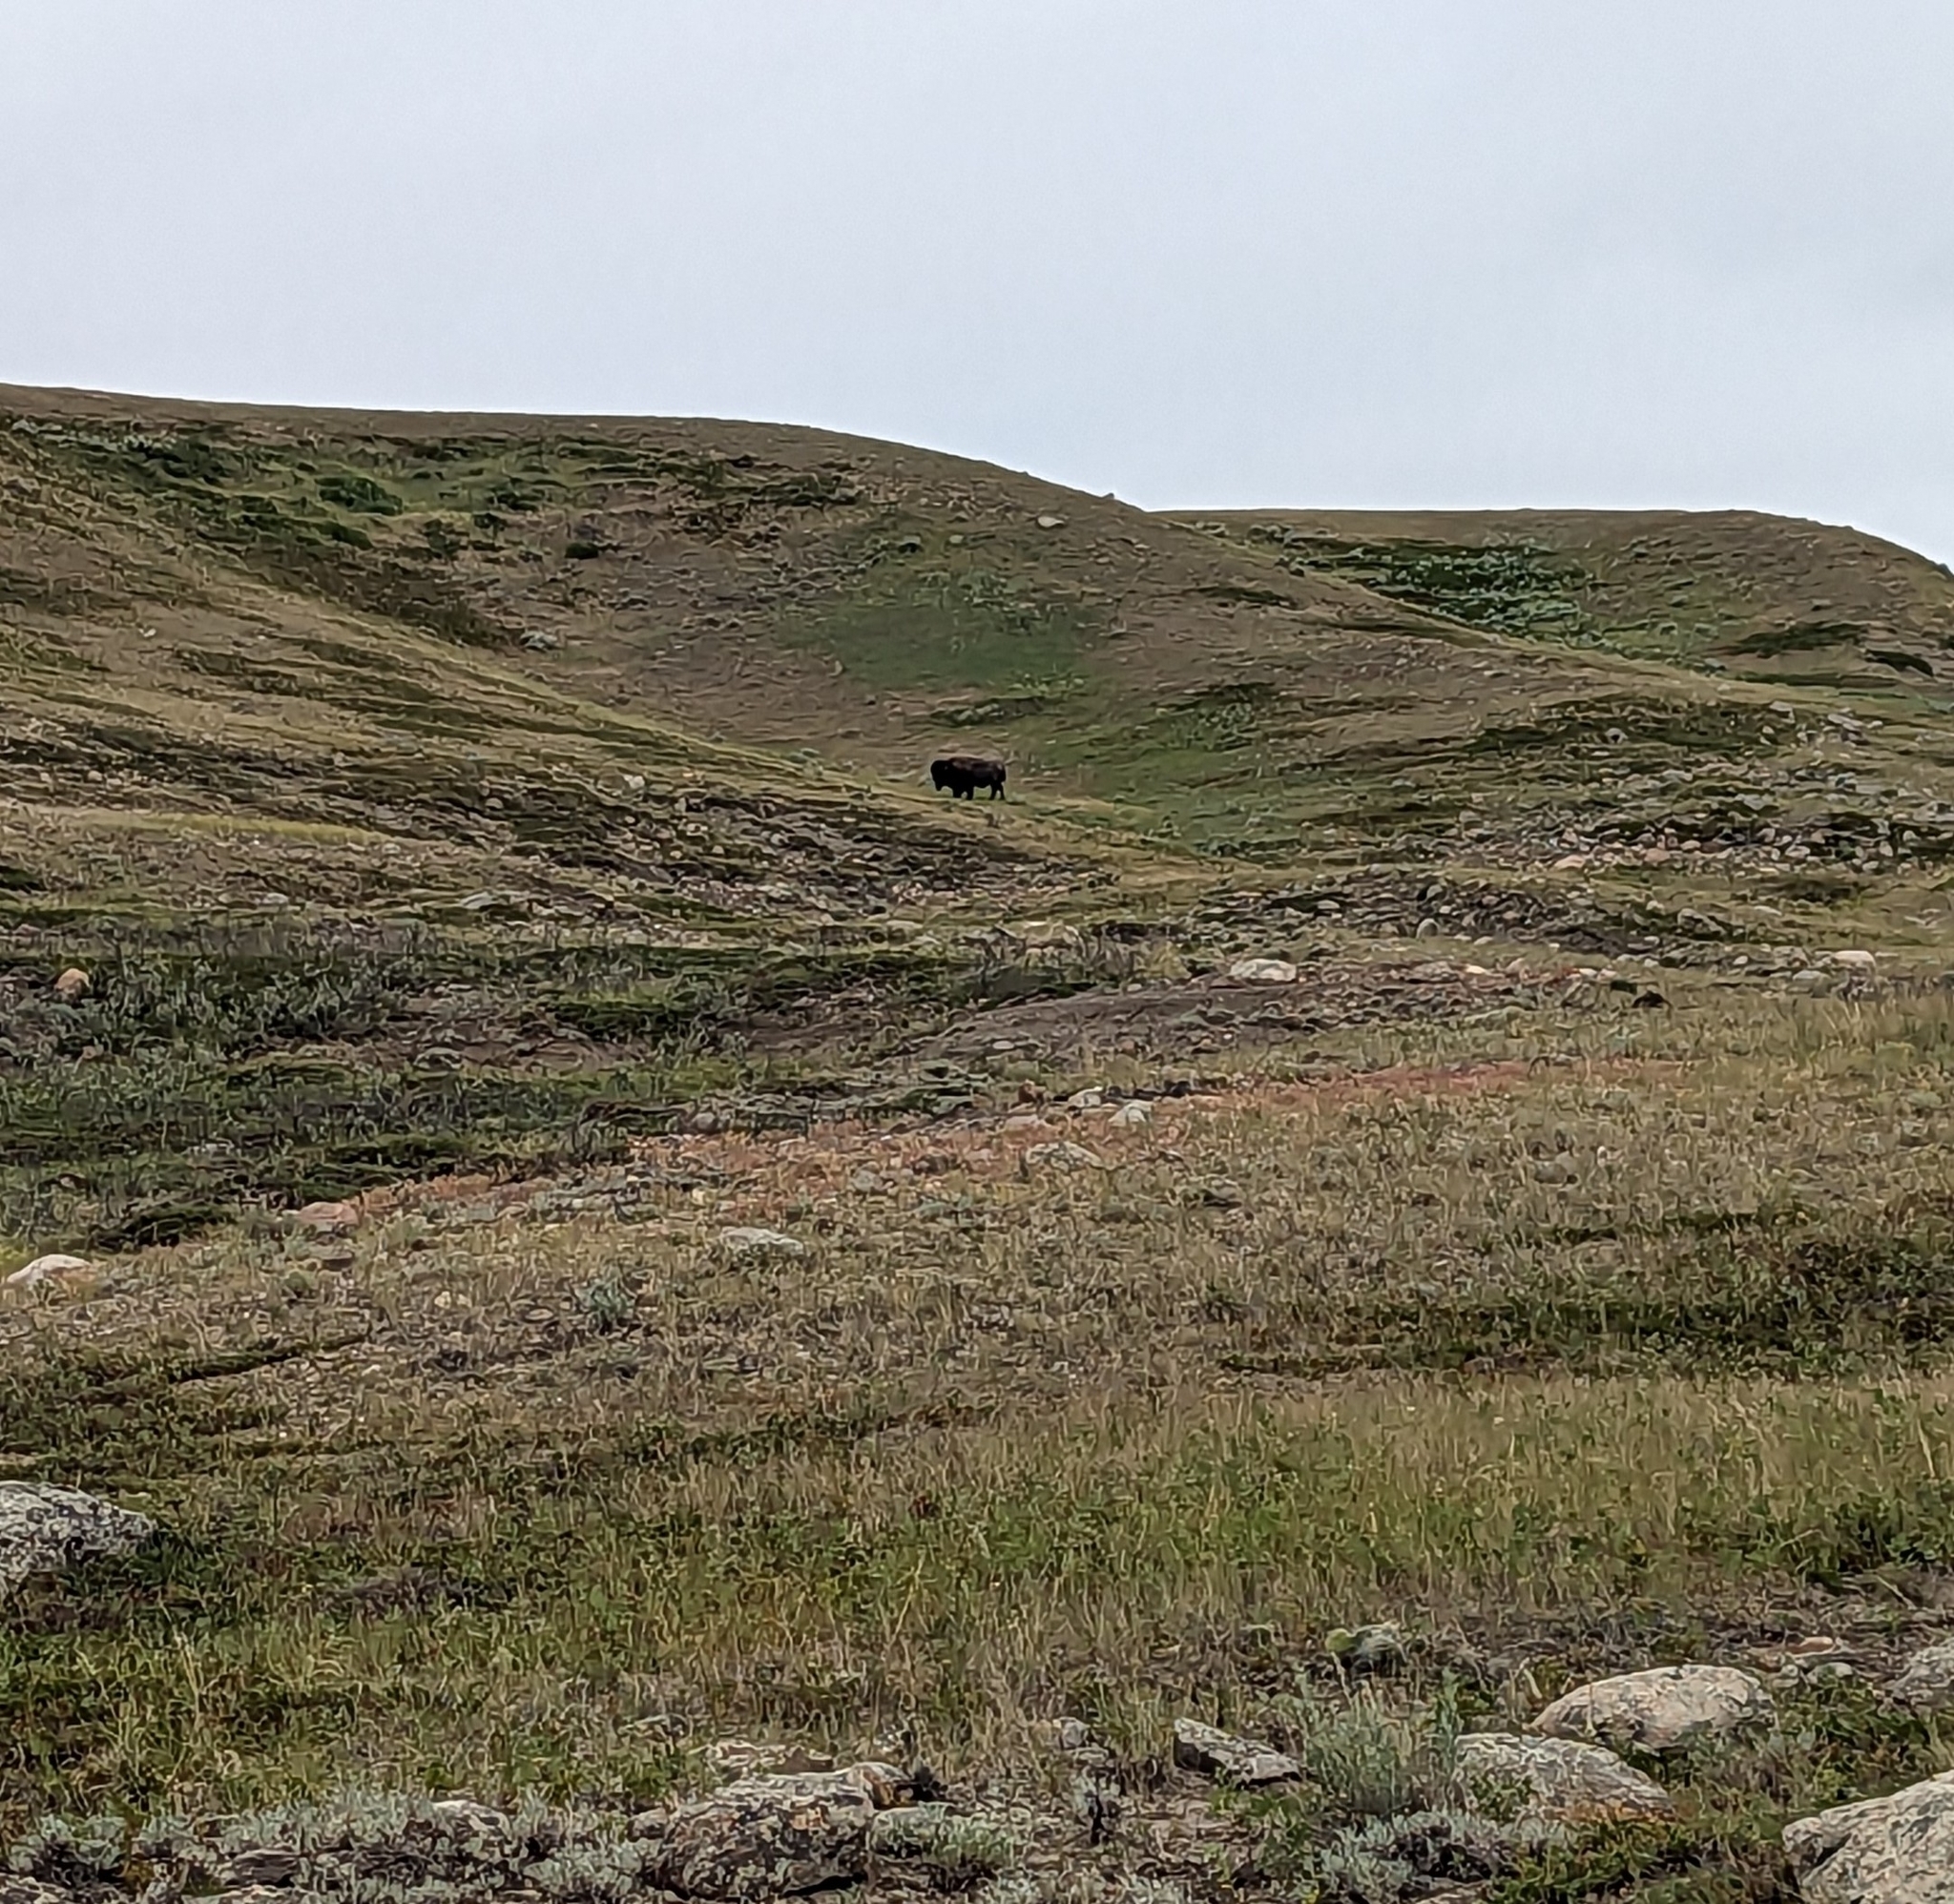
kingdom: Animalia
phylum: Chordata
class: Mammalia
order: Artiodactyla
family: Bovidae
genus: Bison
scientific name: Bison bison
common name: American bison
